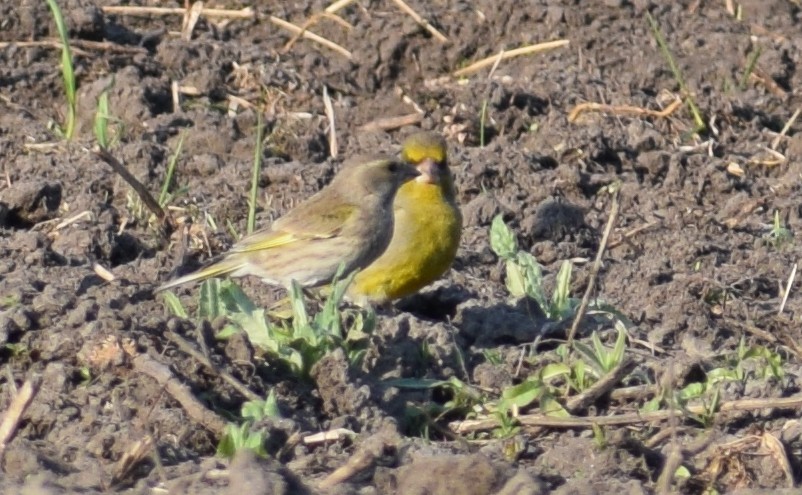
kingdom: Plantae
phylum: Tracheophyta
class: Liliopsida
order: Poales
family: Poaceae
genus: Chloris
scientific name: Chloris chloris
